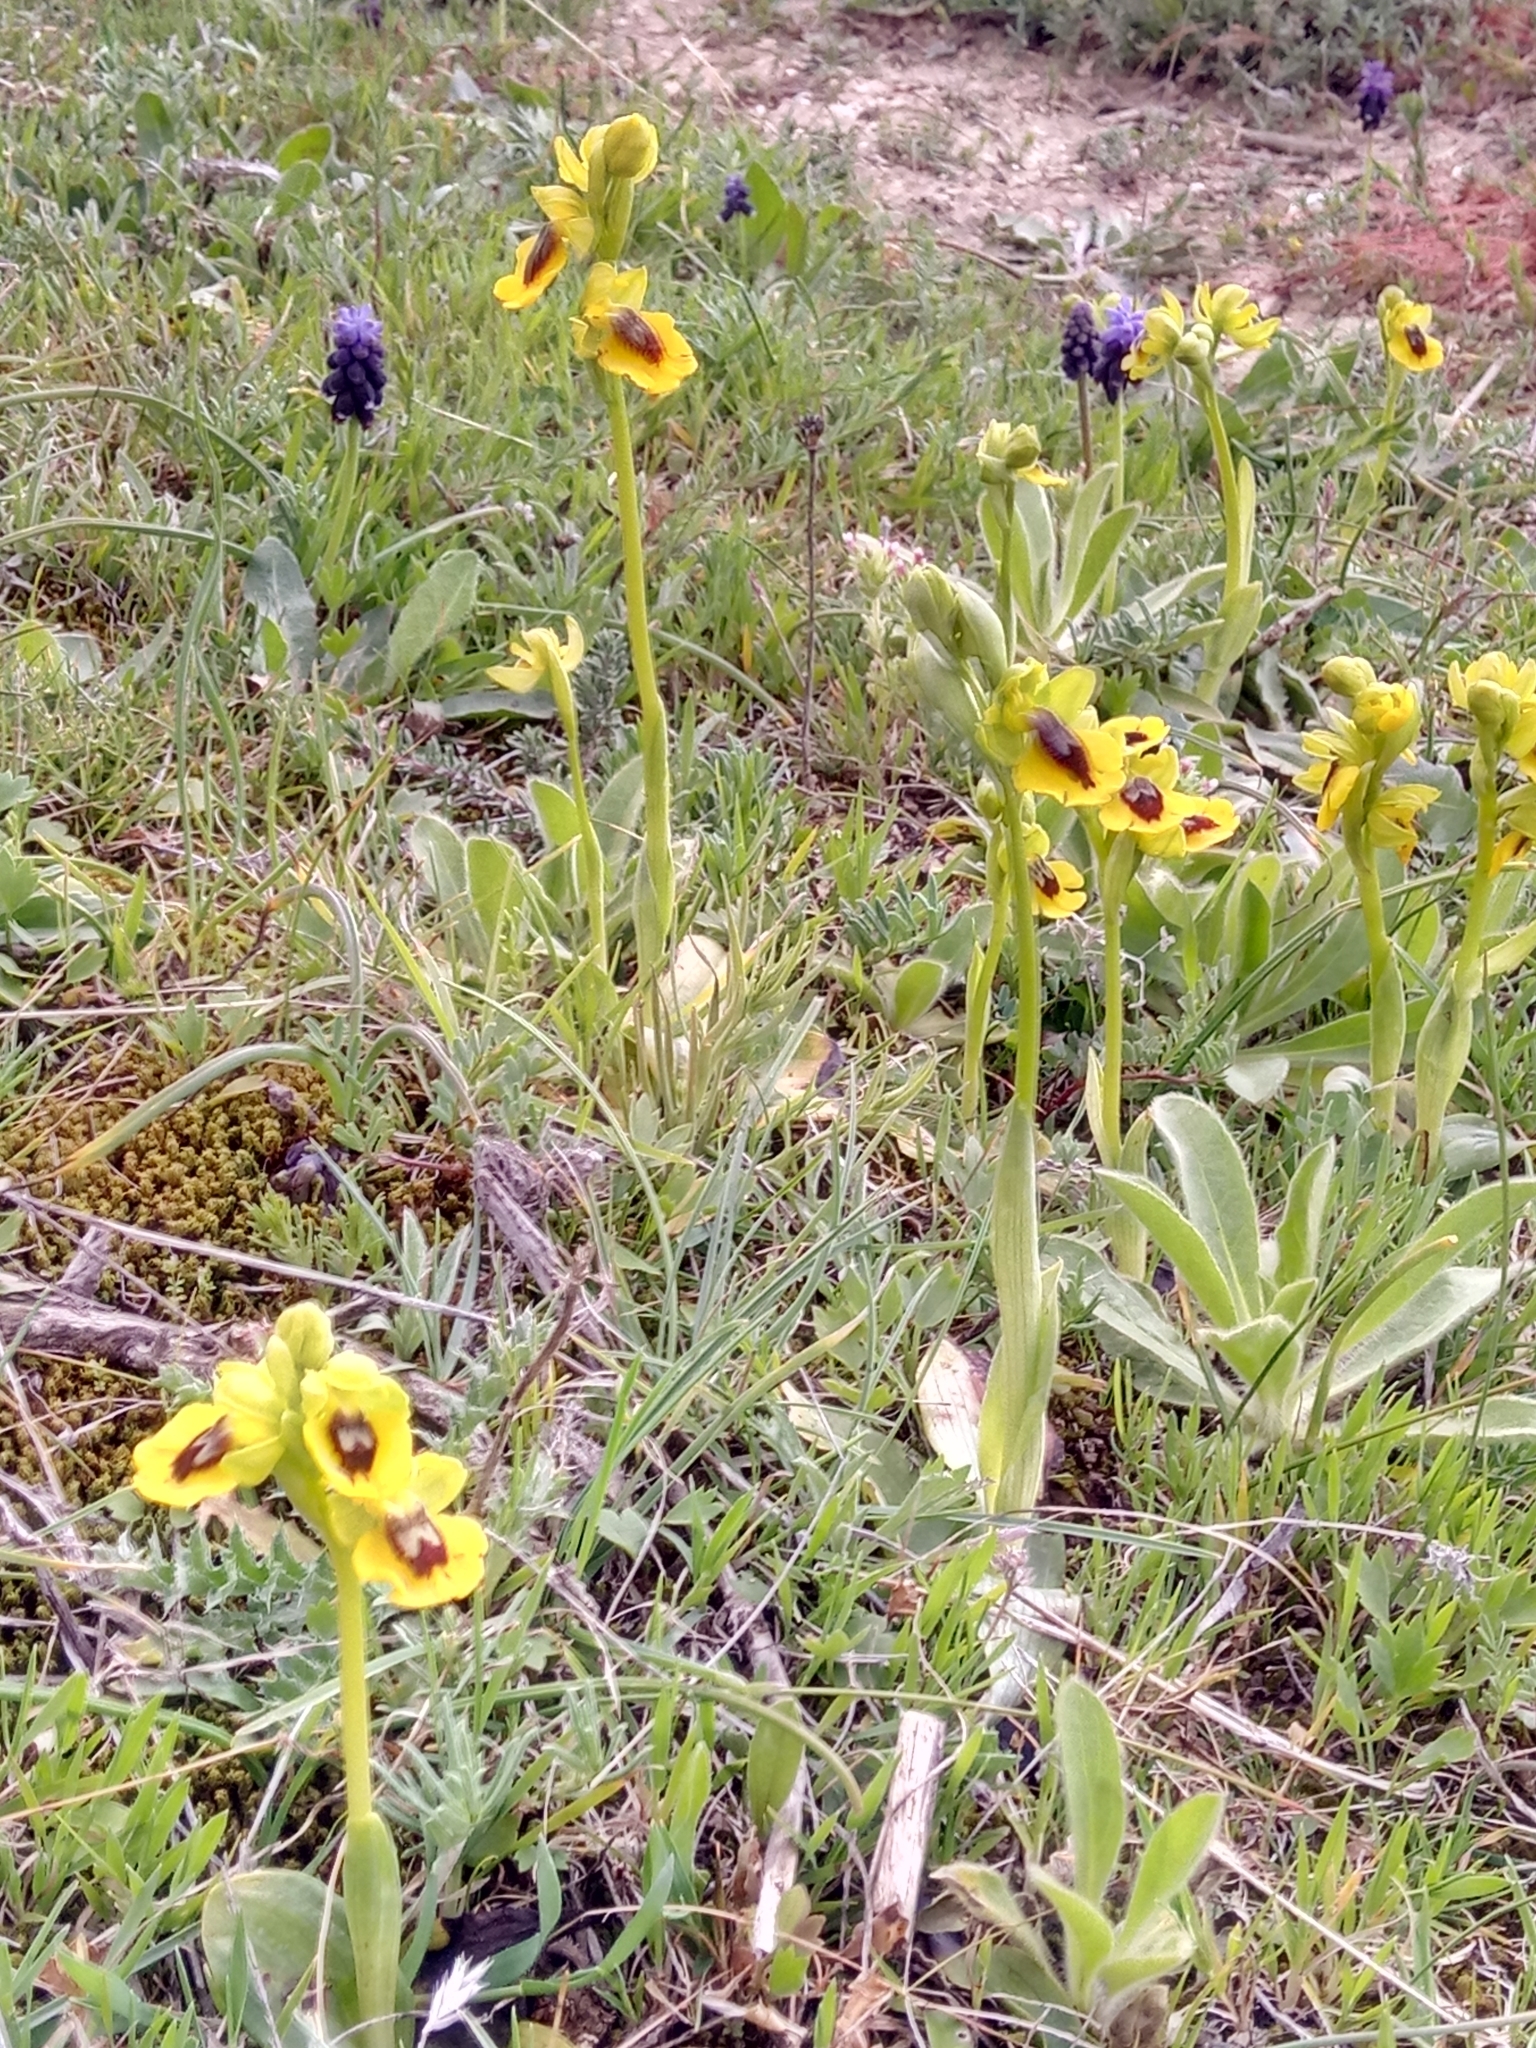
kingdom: Plantae
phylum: Tracheophyta
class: Liliopsida
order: Asparagales
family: Orchidaceae
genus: Ophrys
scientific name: Ophrys lutea
